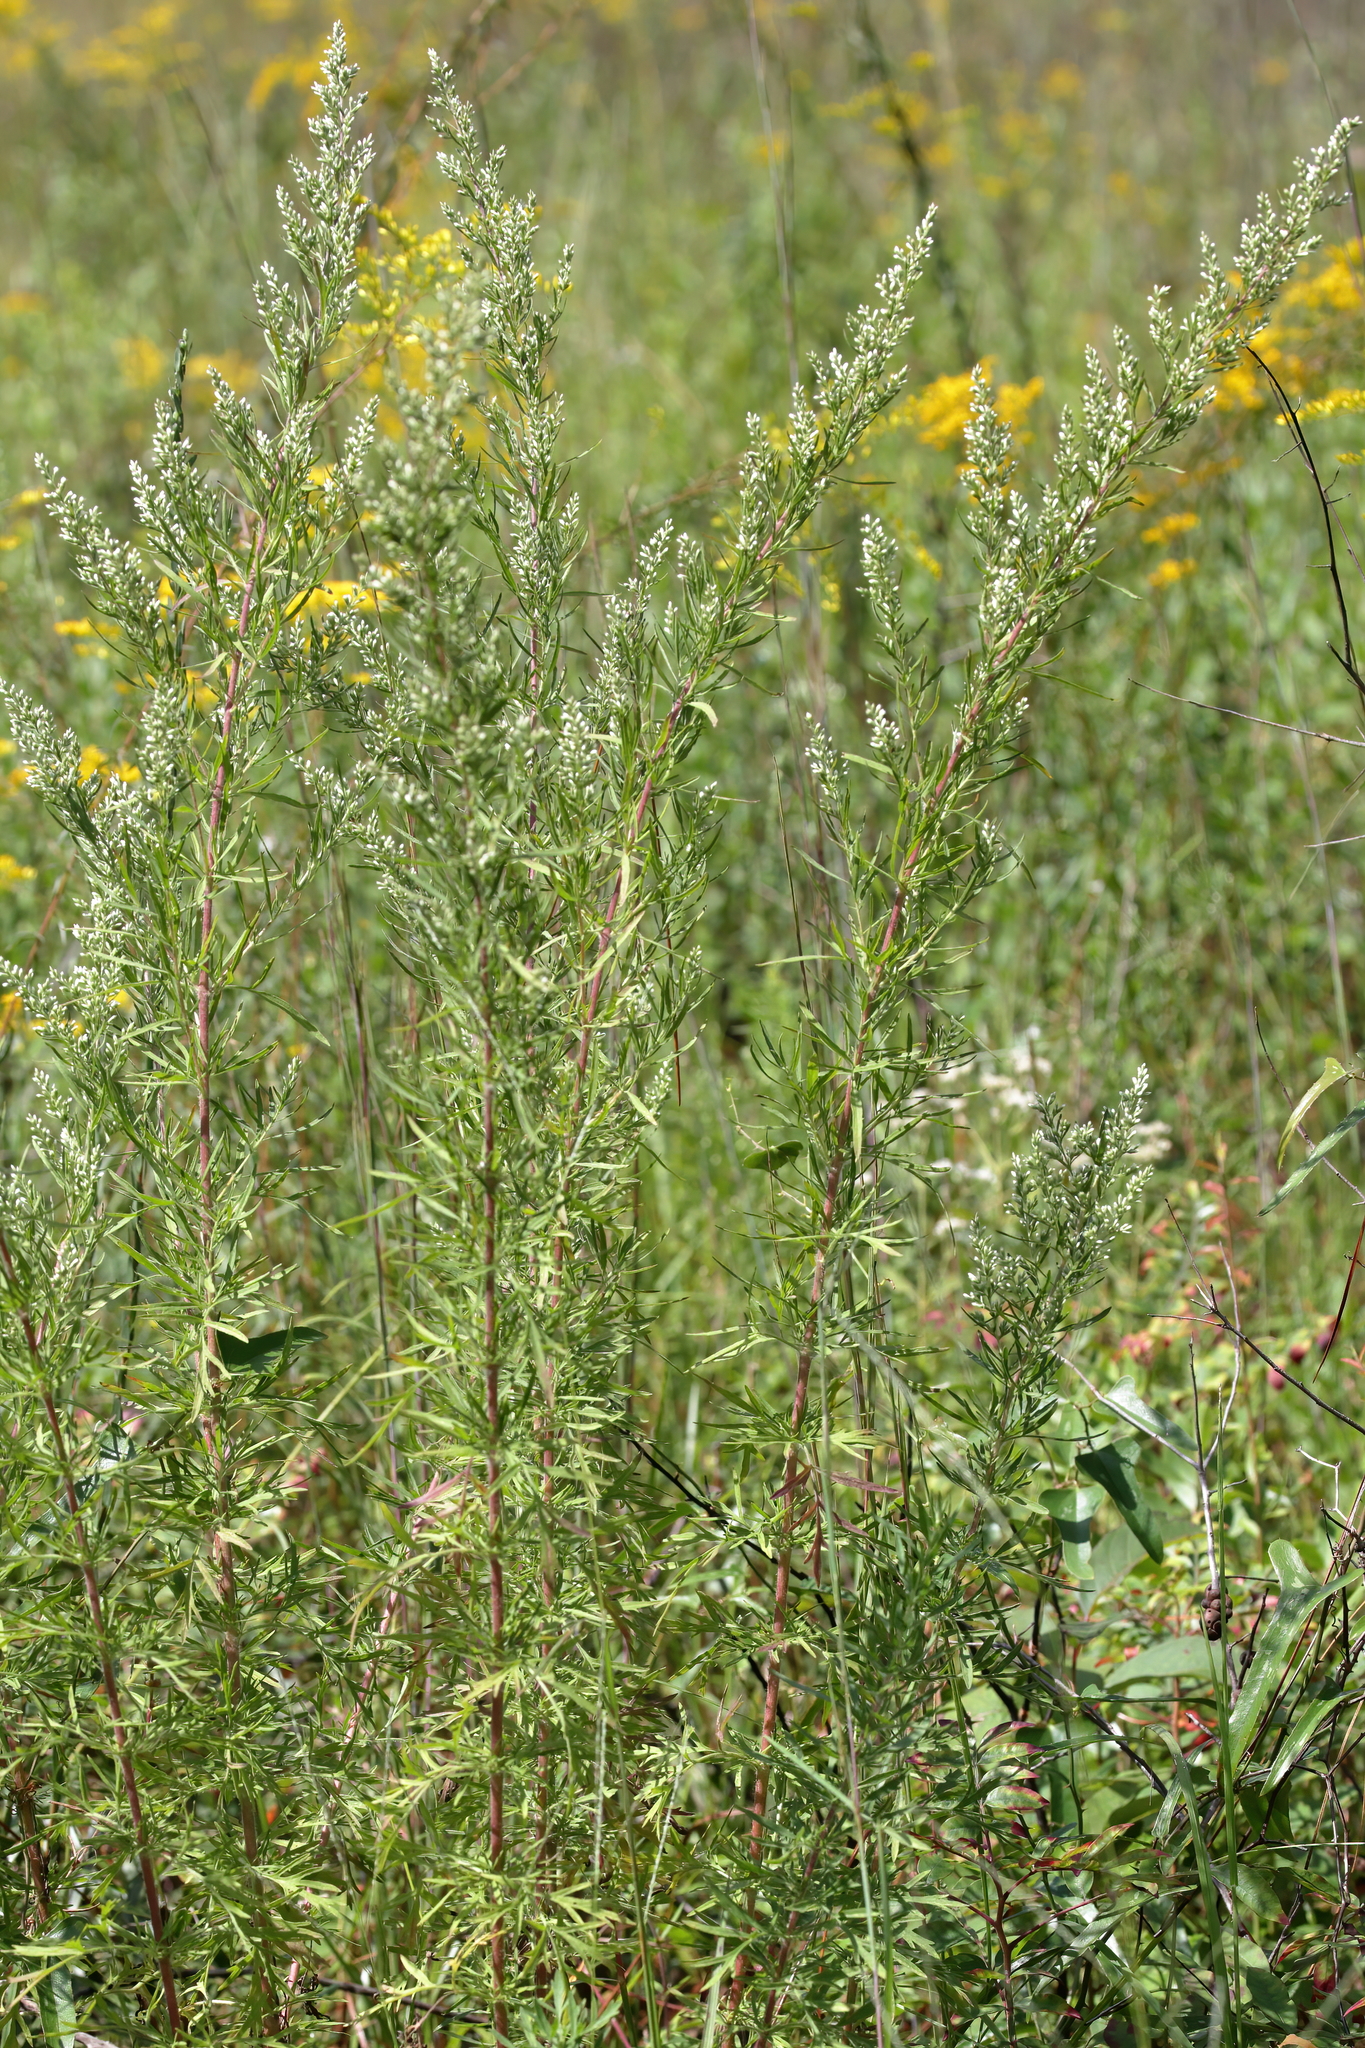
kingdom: Plantae
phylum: Tracheophyta
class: Magnoliopsida
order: Asterales
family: Asteraceae
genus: Eupatorium
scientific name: Eupatorium compositifolium
